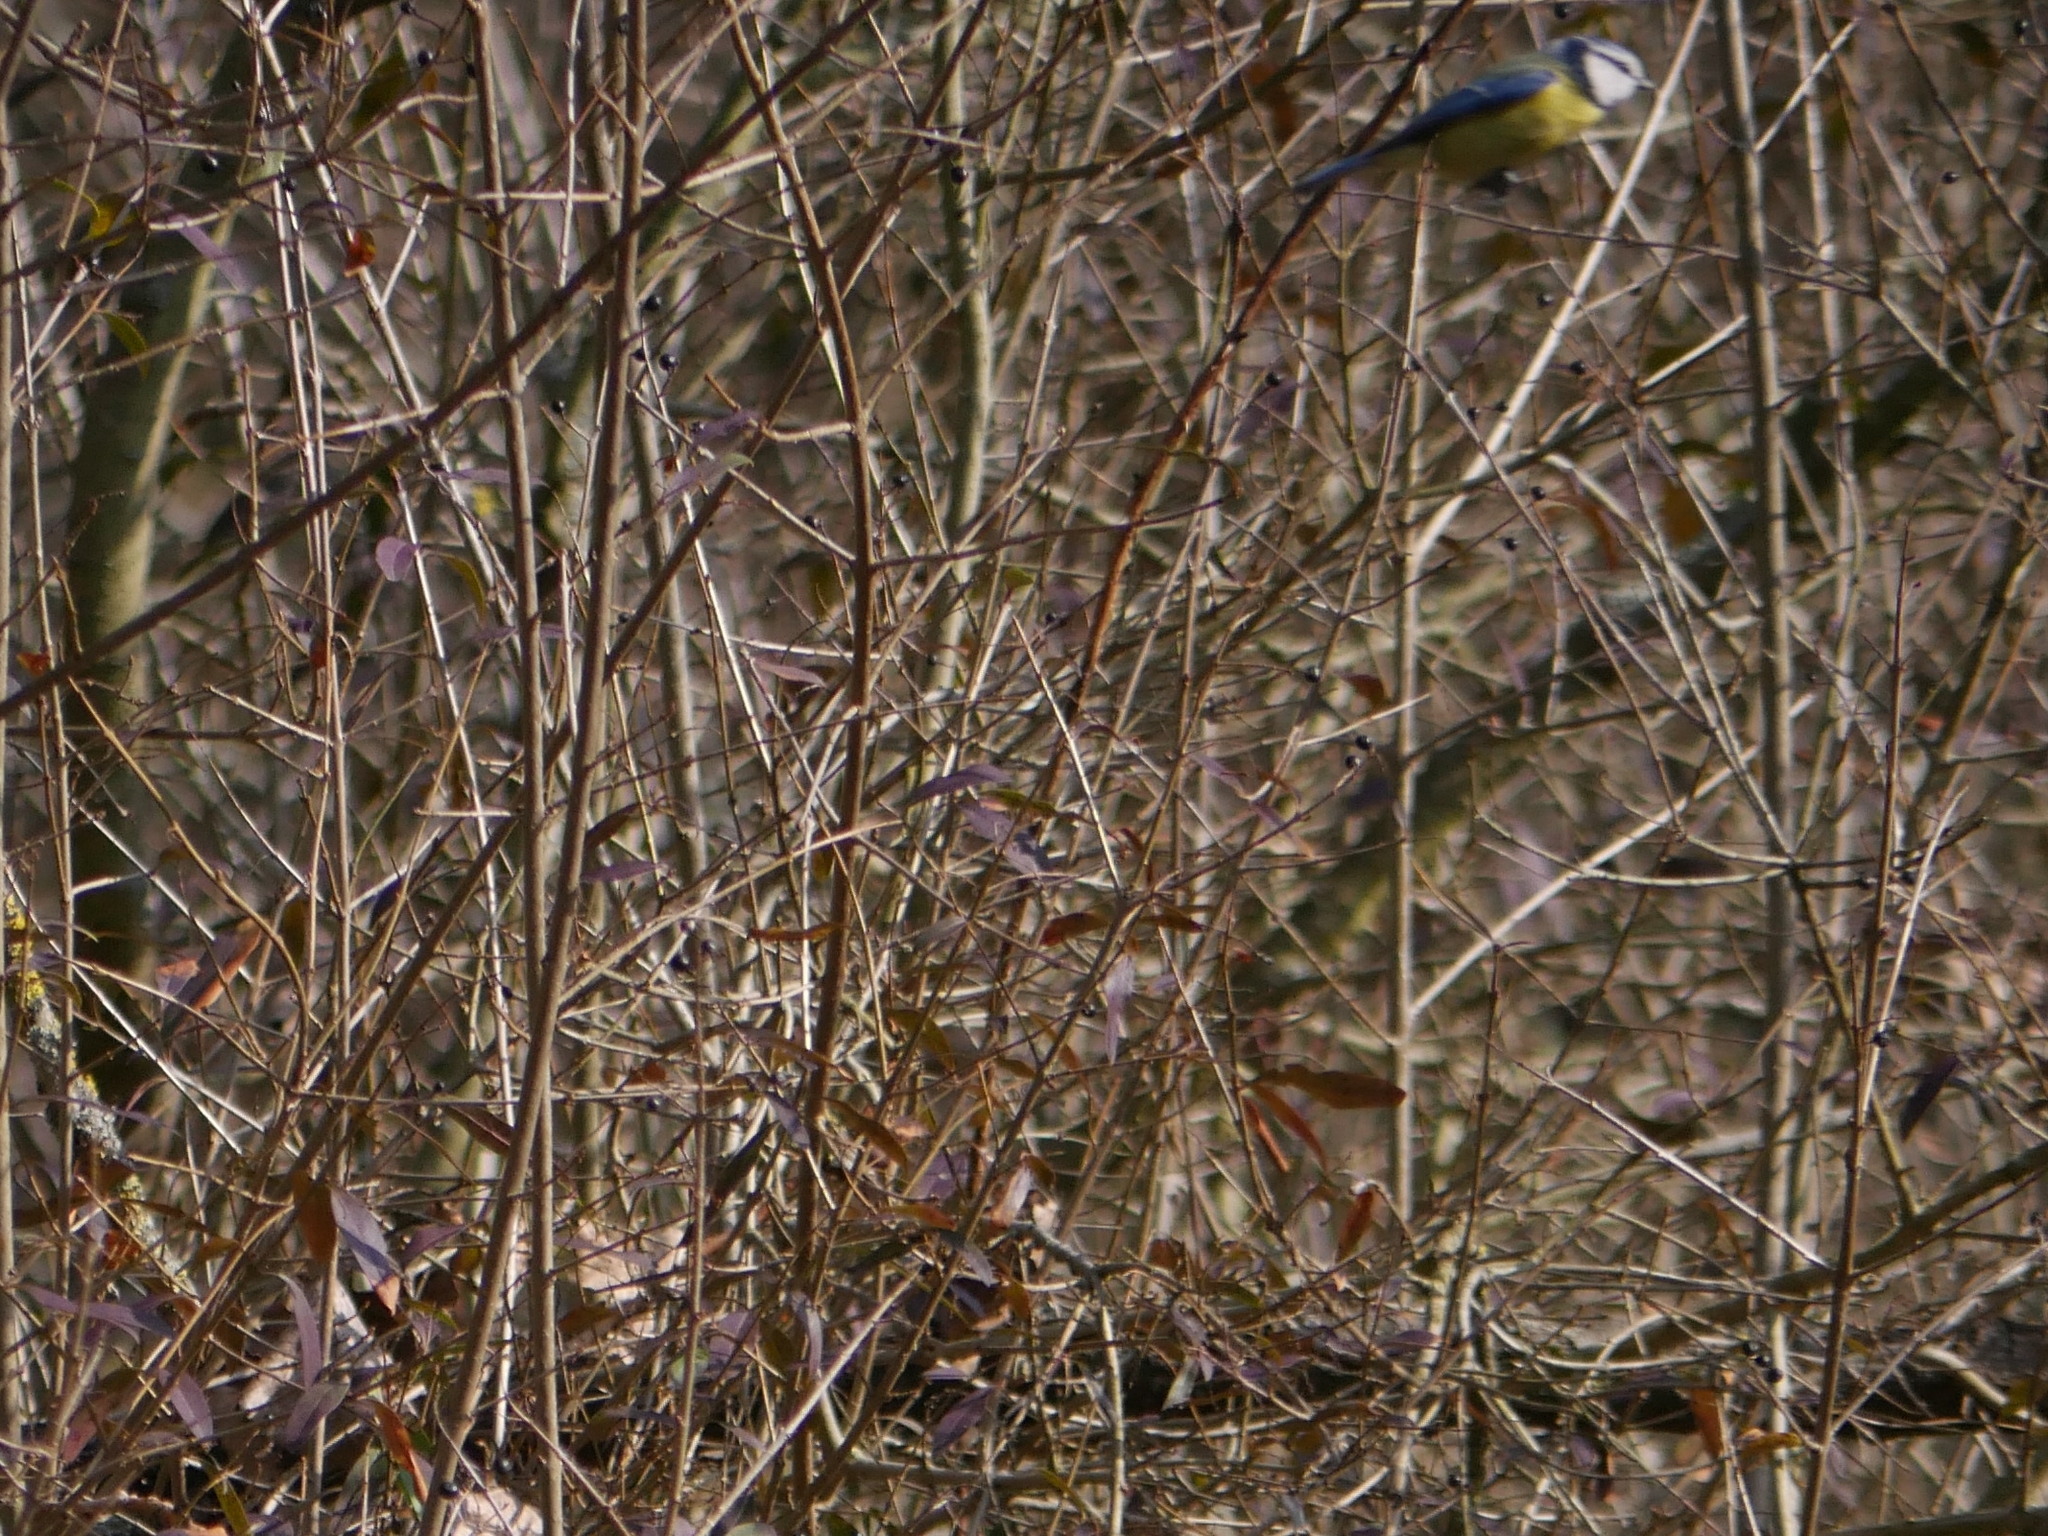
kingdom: Animalia
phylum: Chordata
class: Aves
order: Passeriformes
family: Paridae
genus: Cyanistes
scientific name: Cyanistes caeruleus
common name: Eurasian blue tit
